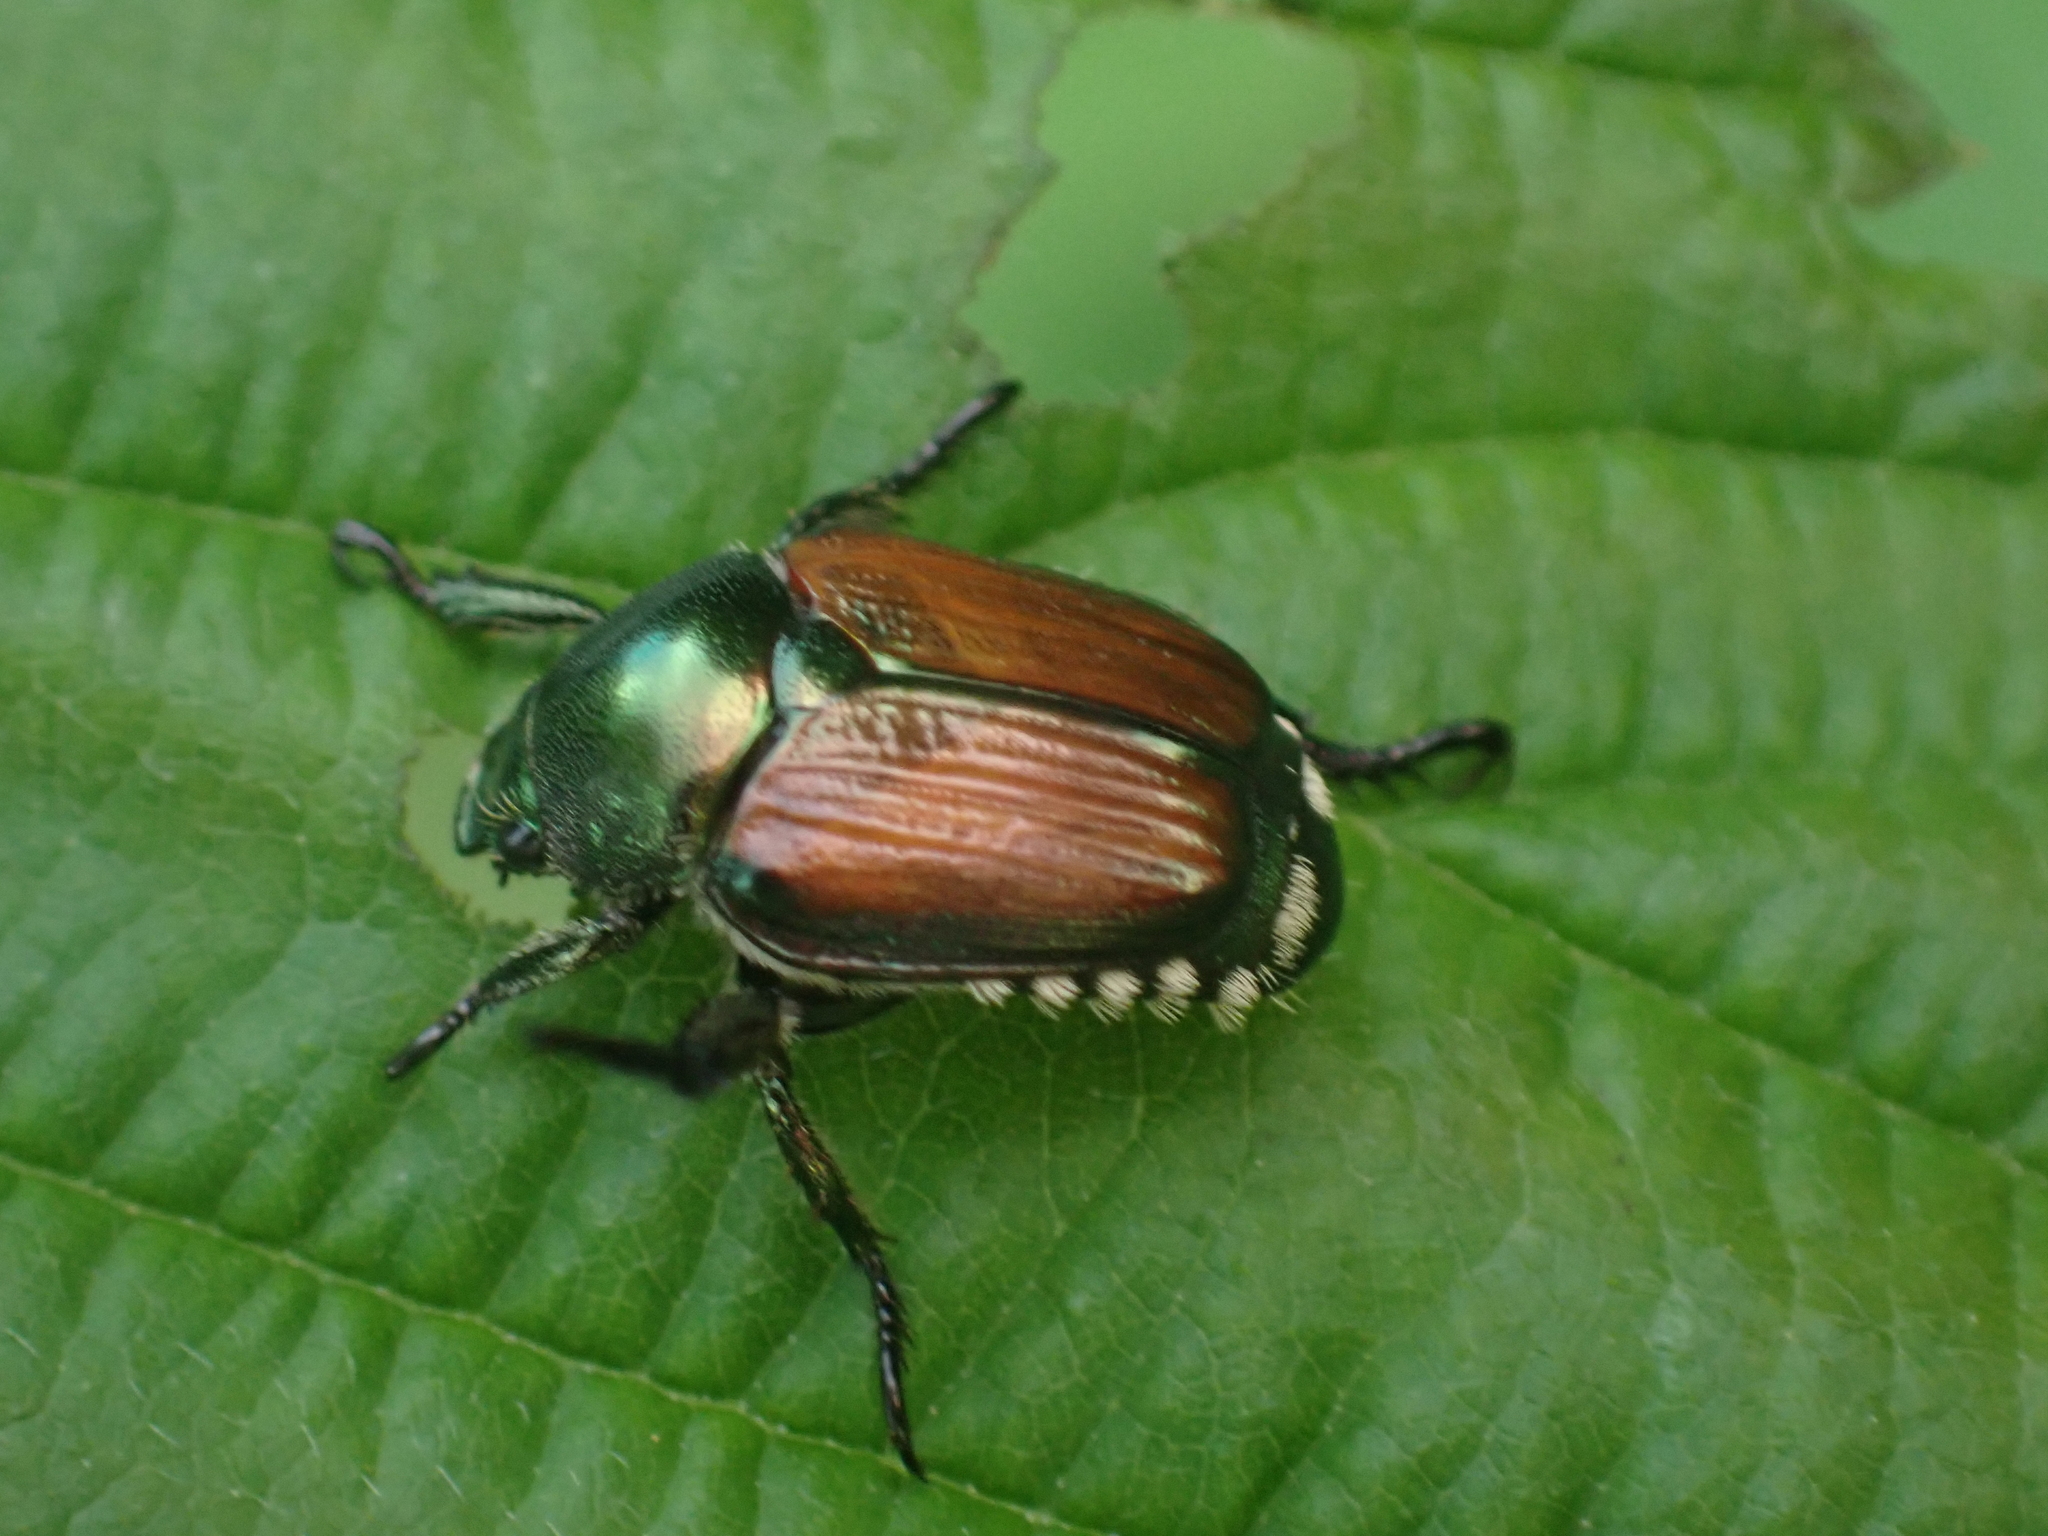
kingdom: Animalia
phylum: Arthropoda
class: Insecta
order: Coleoptera
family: Scarabaeidae
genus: Popillia
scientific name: Popillia japonica
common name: Japanese beetle
